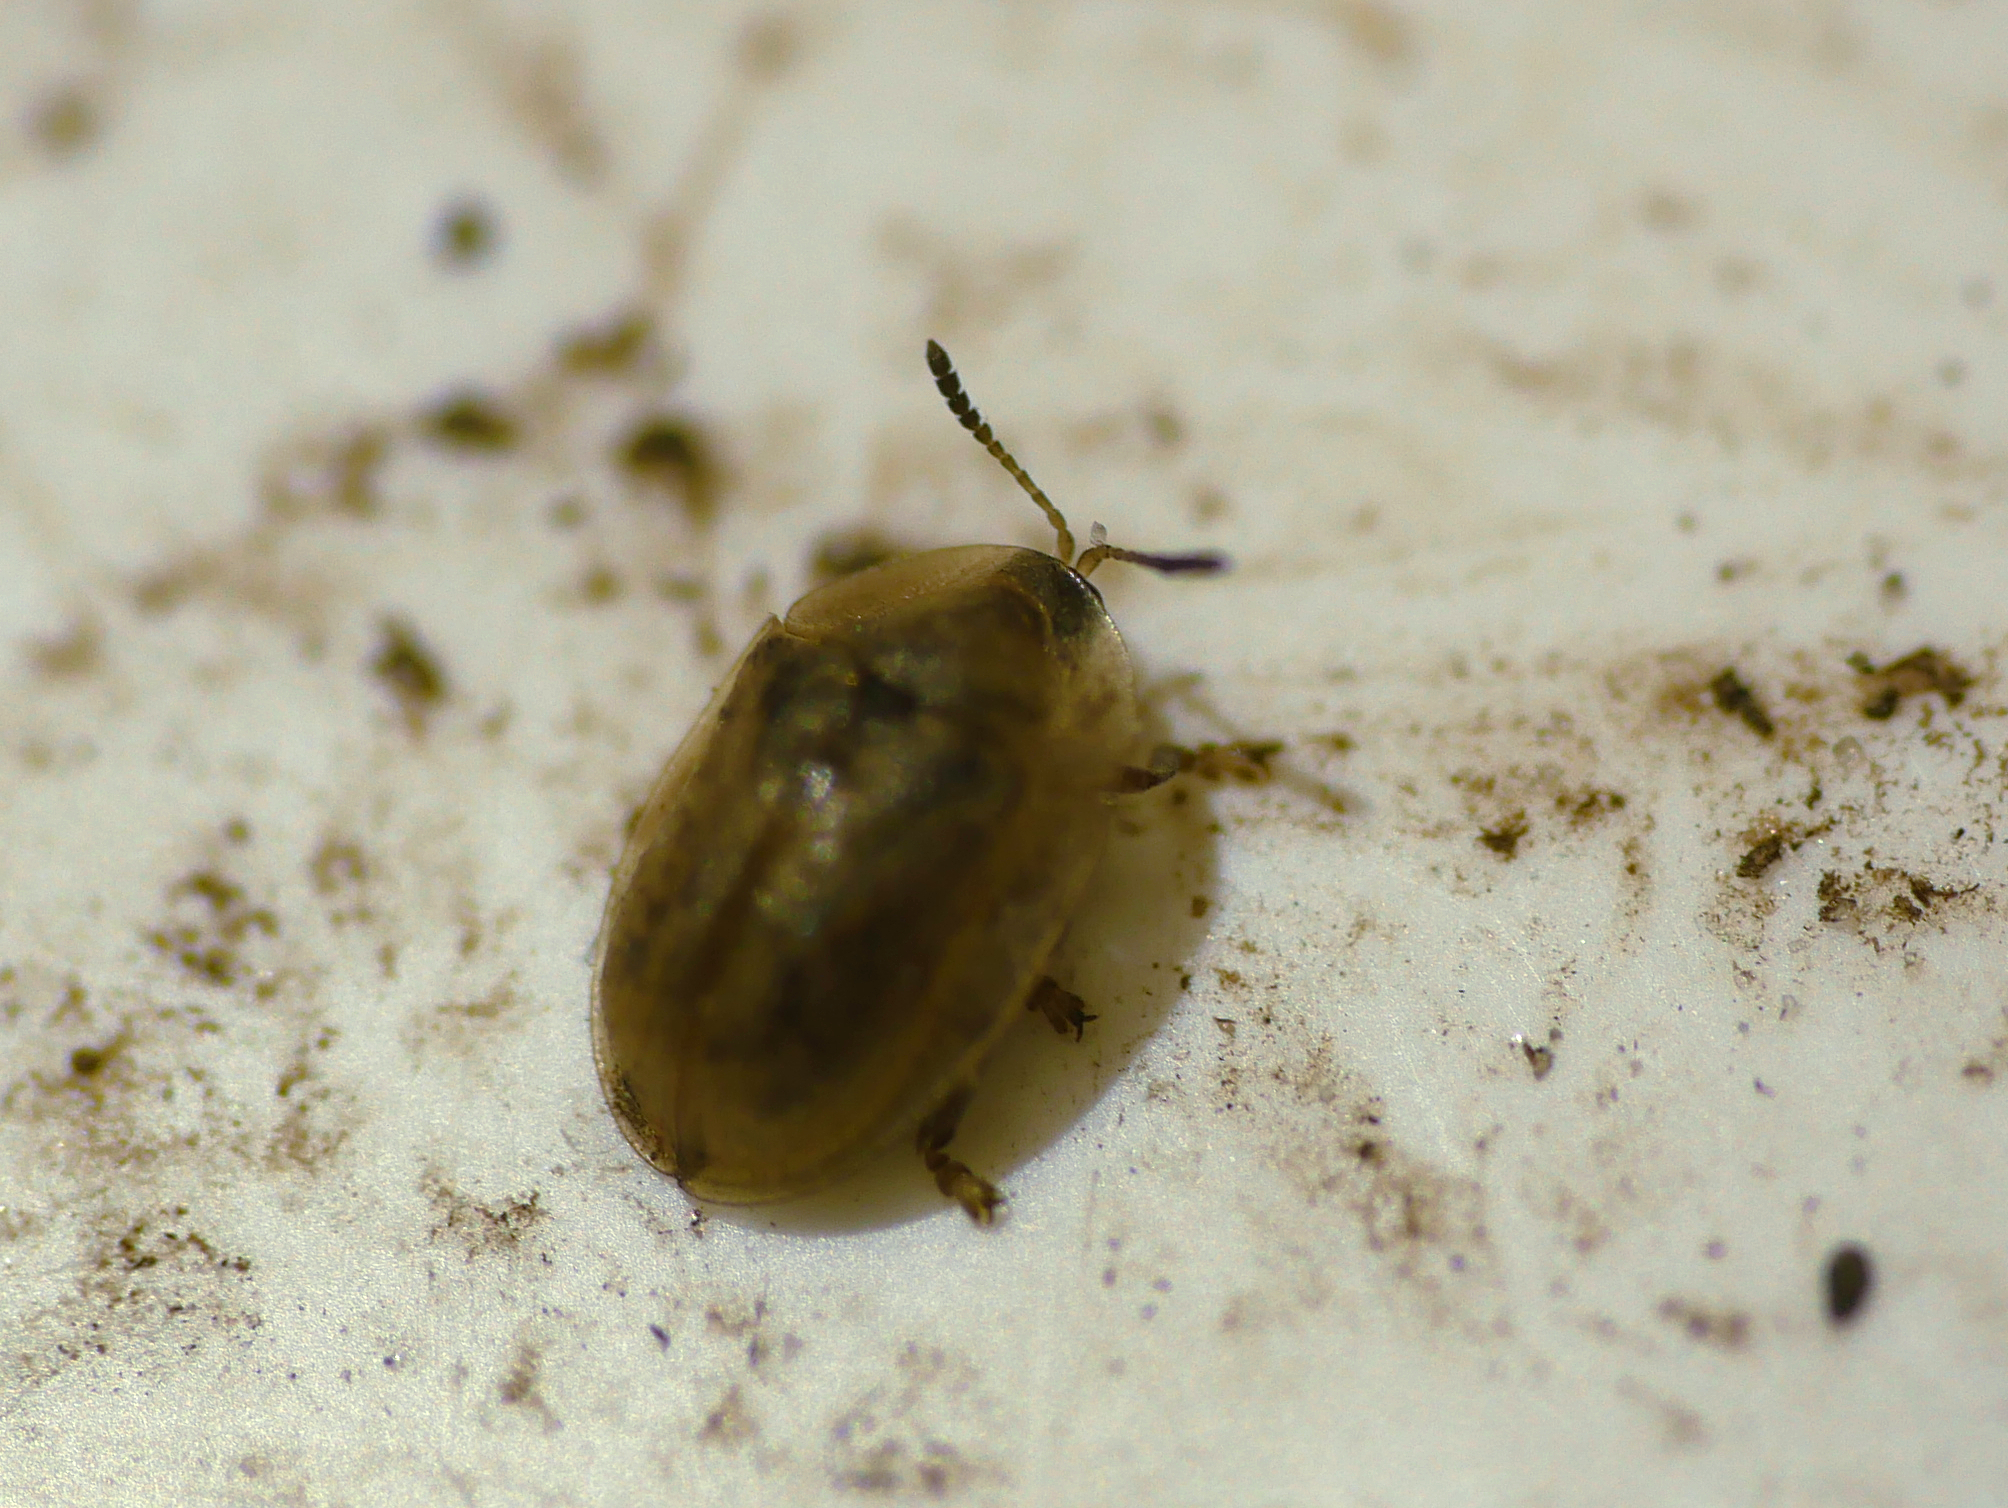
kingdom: Animalia
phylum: Arthropoda
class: Insecta
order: Coleoptera
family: Chrysomelidae
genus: Cassida
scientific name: Cassida flaveola
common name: Pale tortoise beetle
